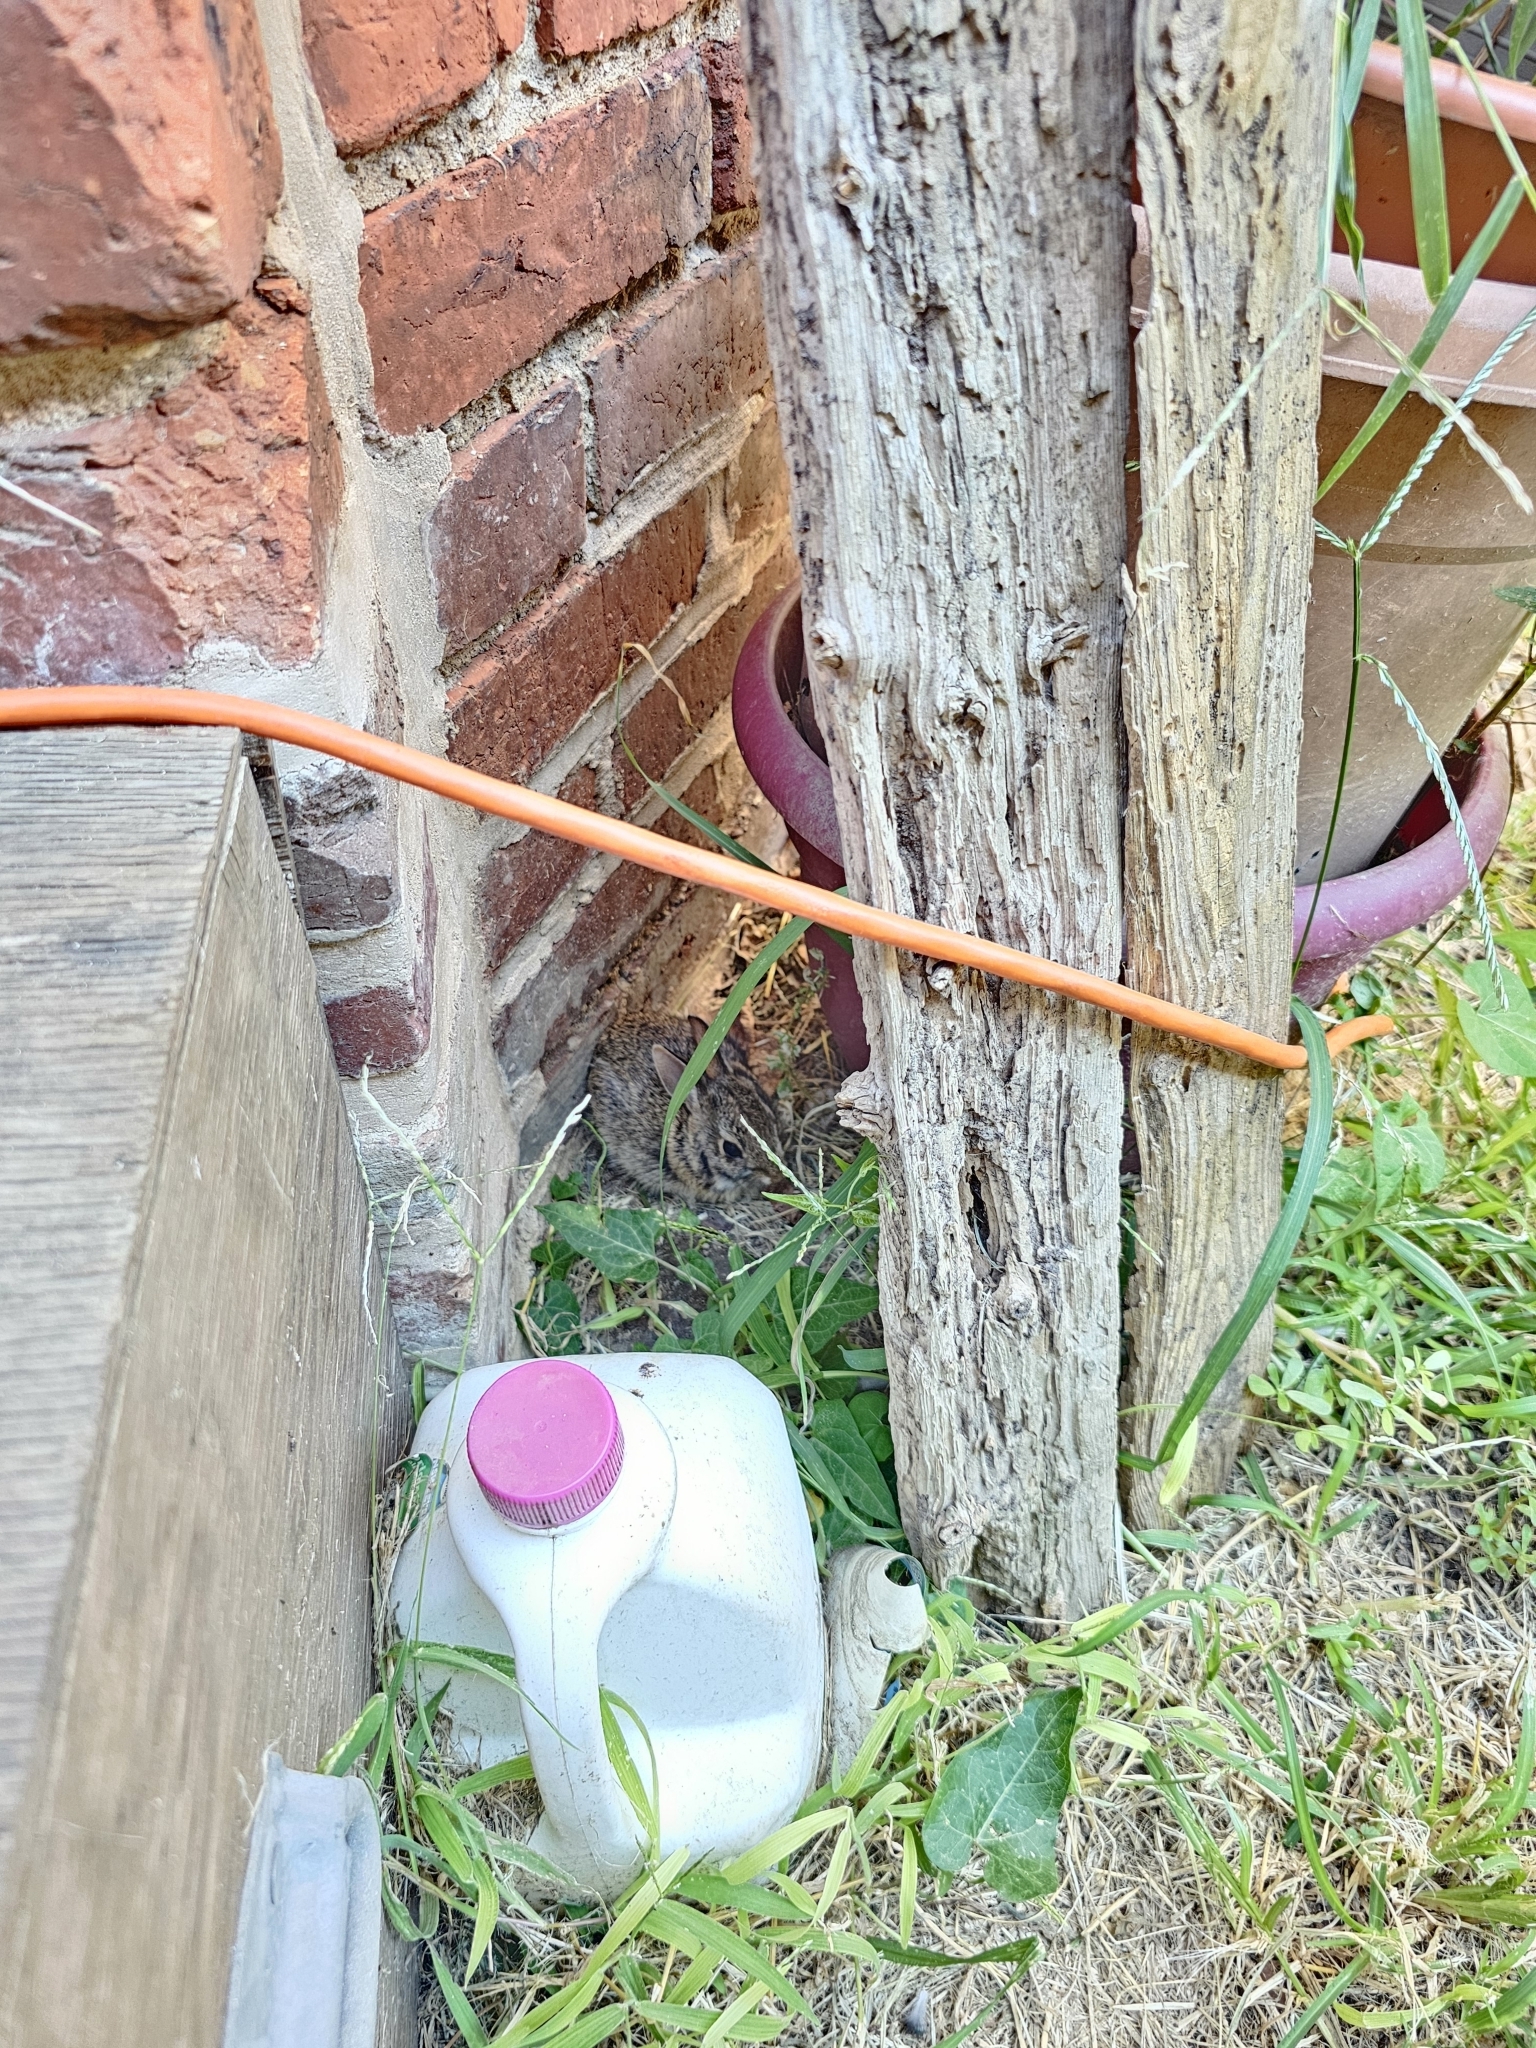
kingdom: Animalia
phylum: Chordata
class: Mammalia
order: Lagomorpha
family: Leporidae
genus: Sylvilagus
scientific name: Sylvilagus floridanus
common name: Eastern cottontail
